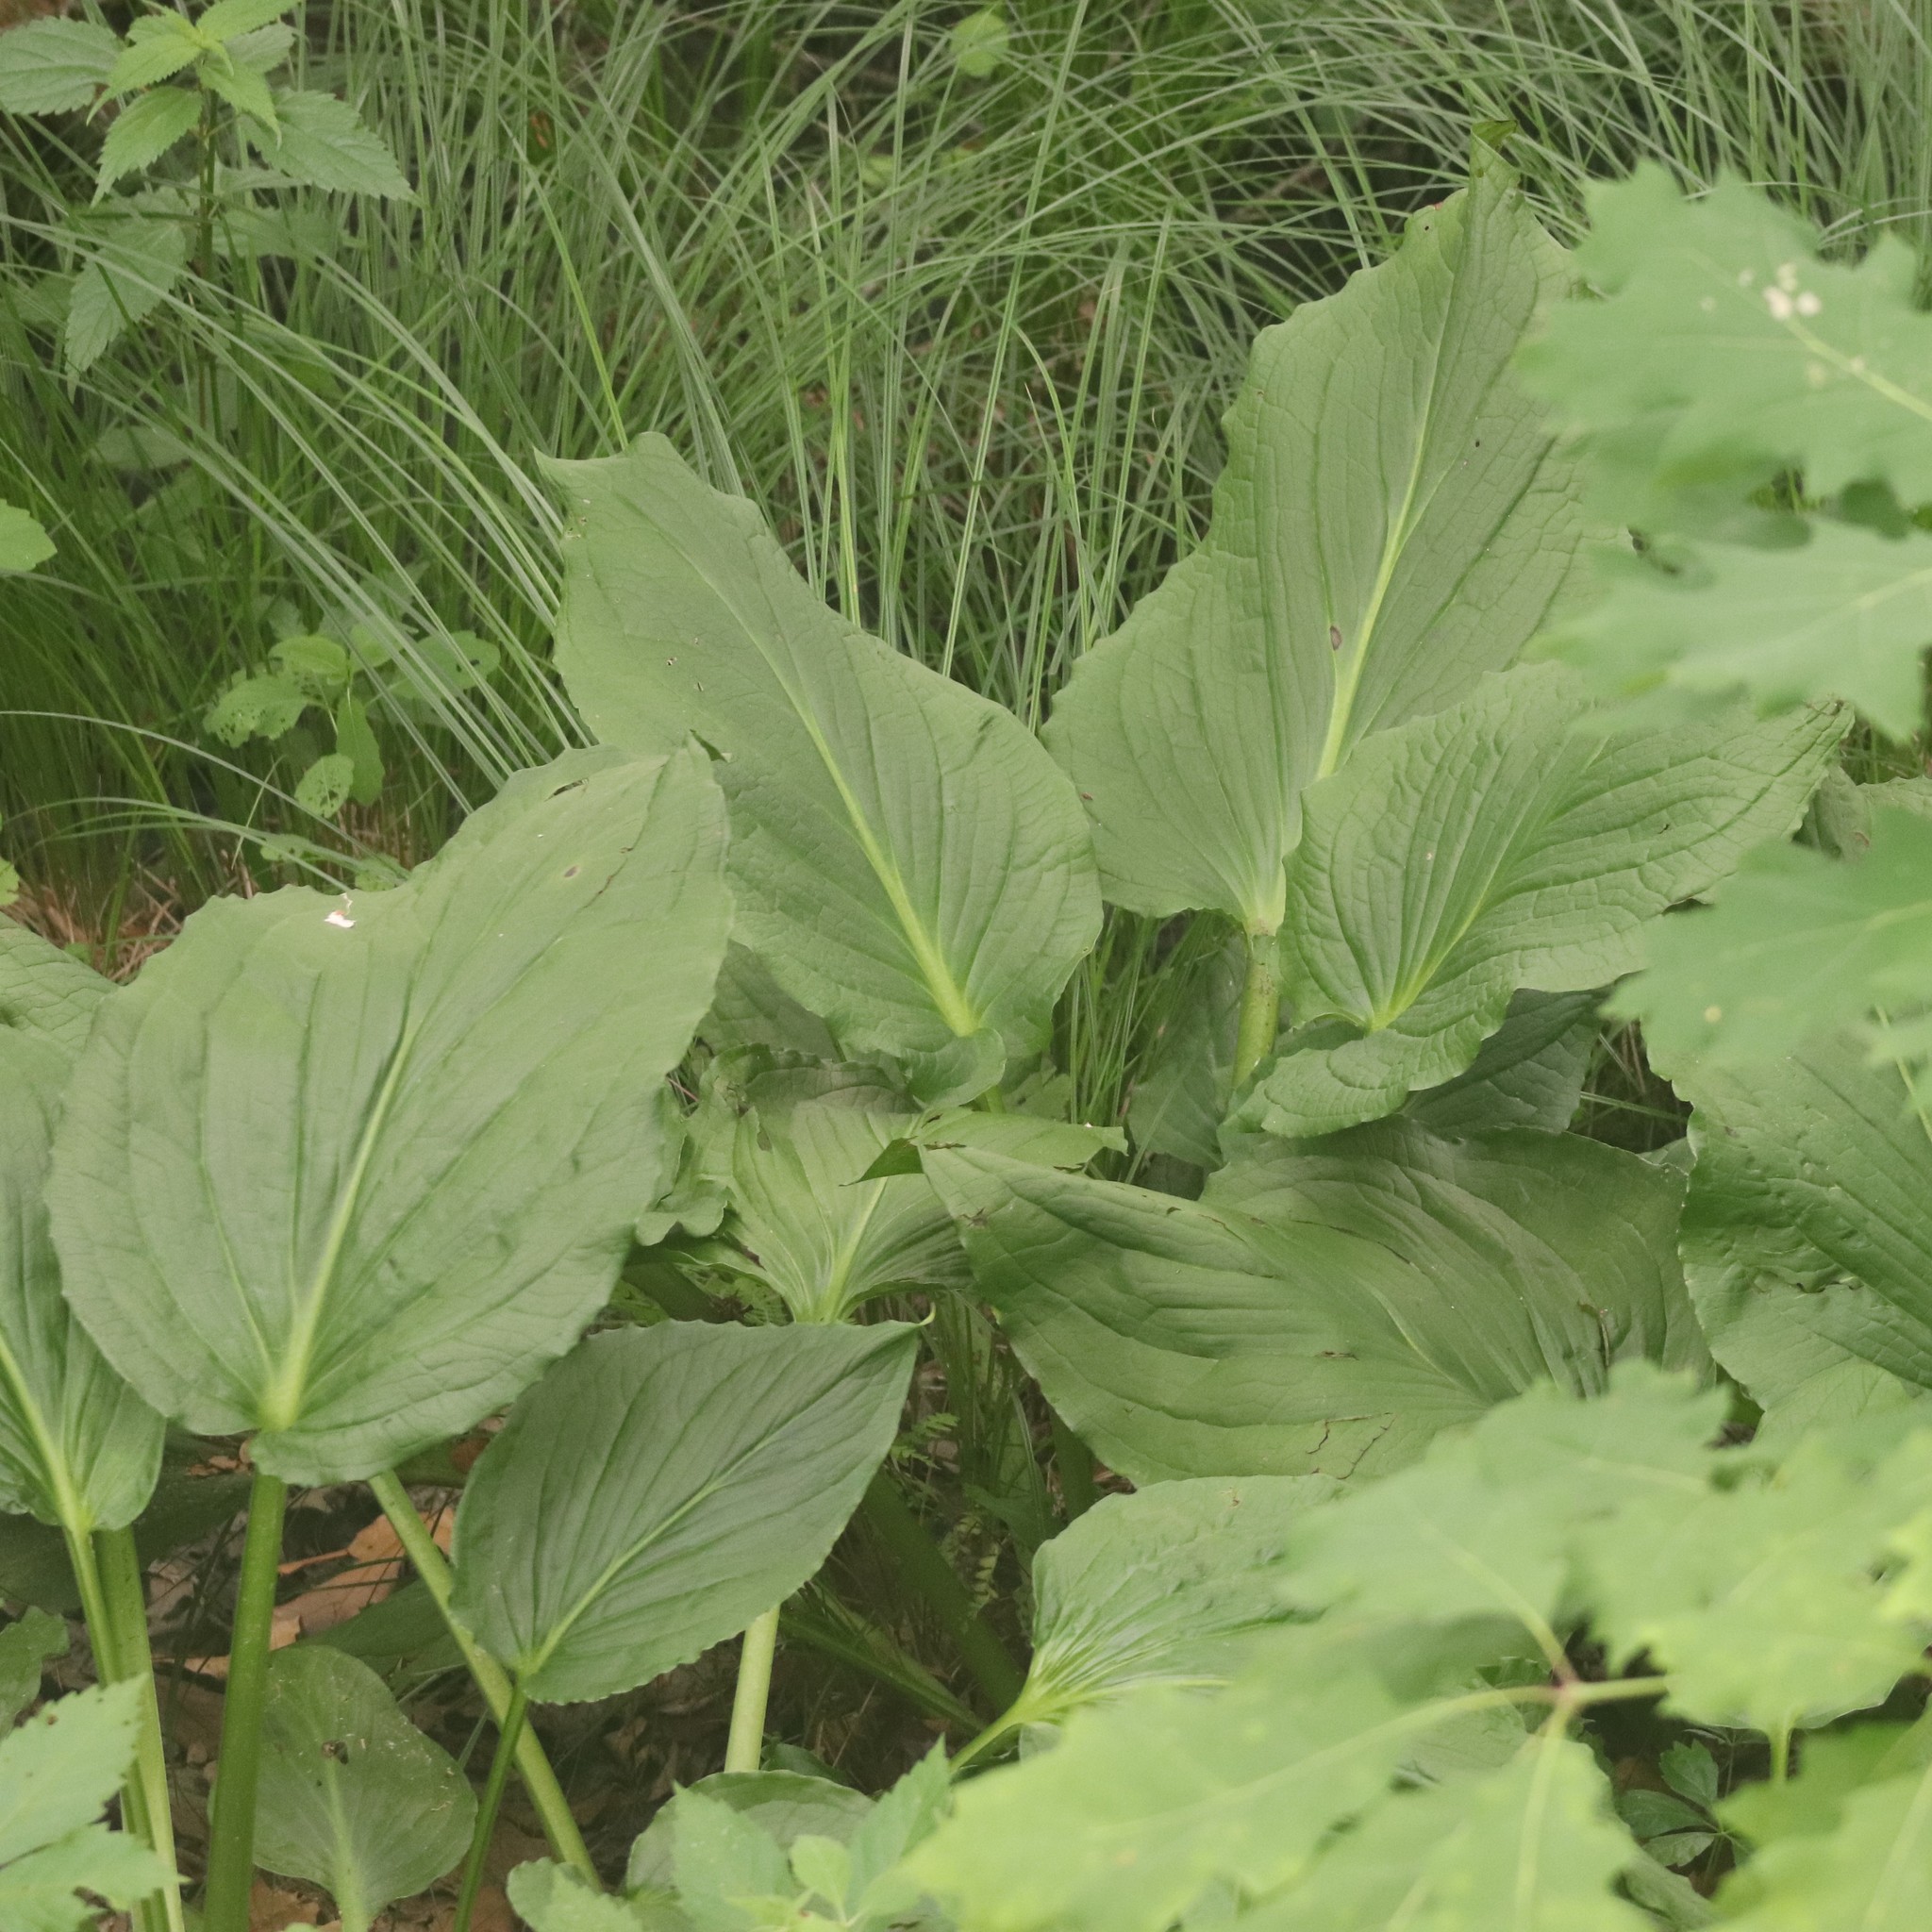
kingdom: Plantae
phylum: Tracheophyta
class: Liliopsida
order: Alismatales
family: Araceae
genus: Symplocarpus
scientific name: Symplocarpus foetidus
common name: Eastern skunk cabbage
